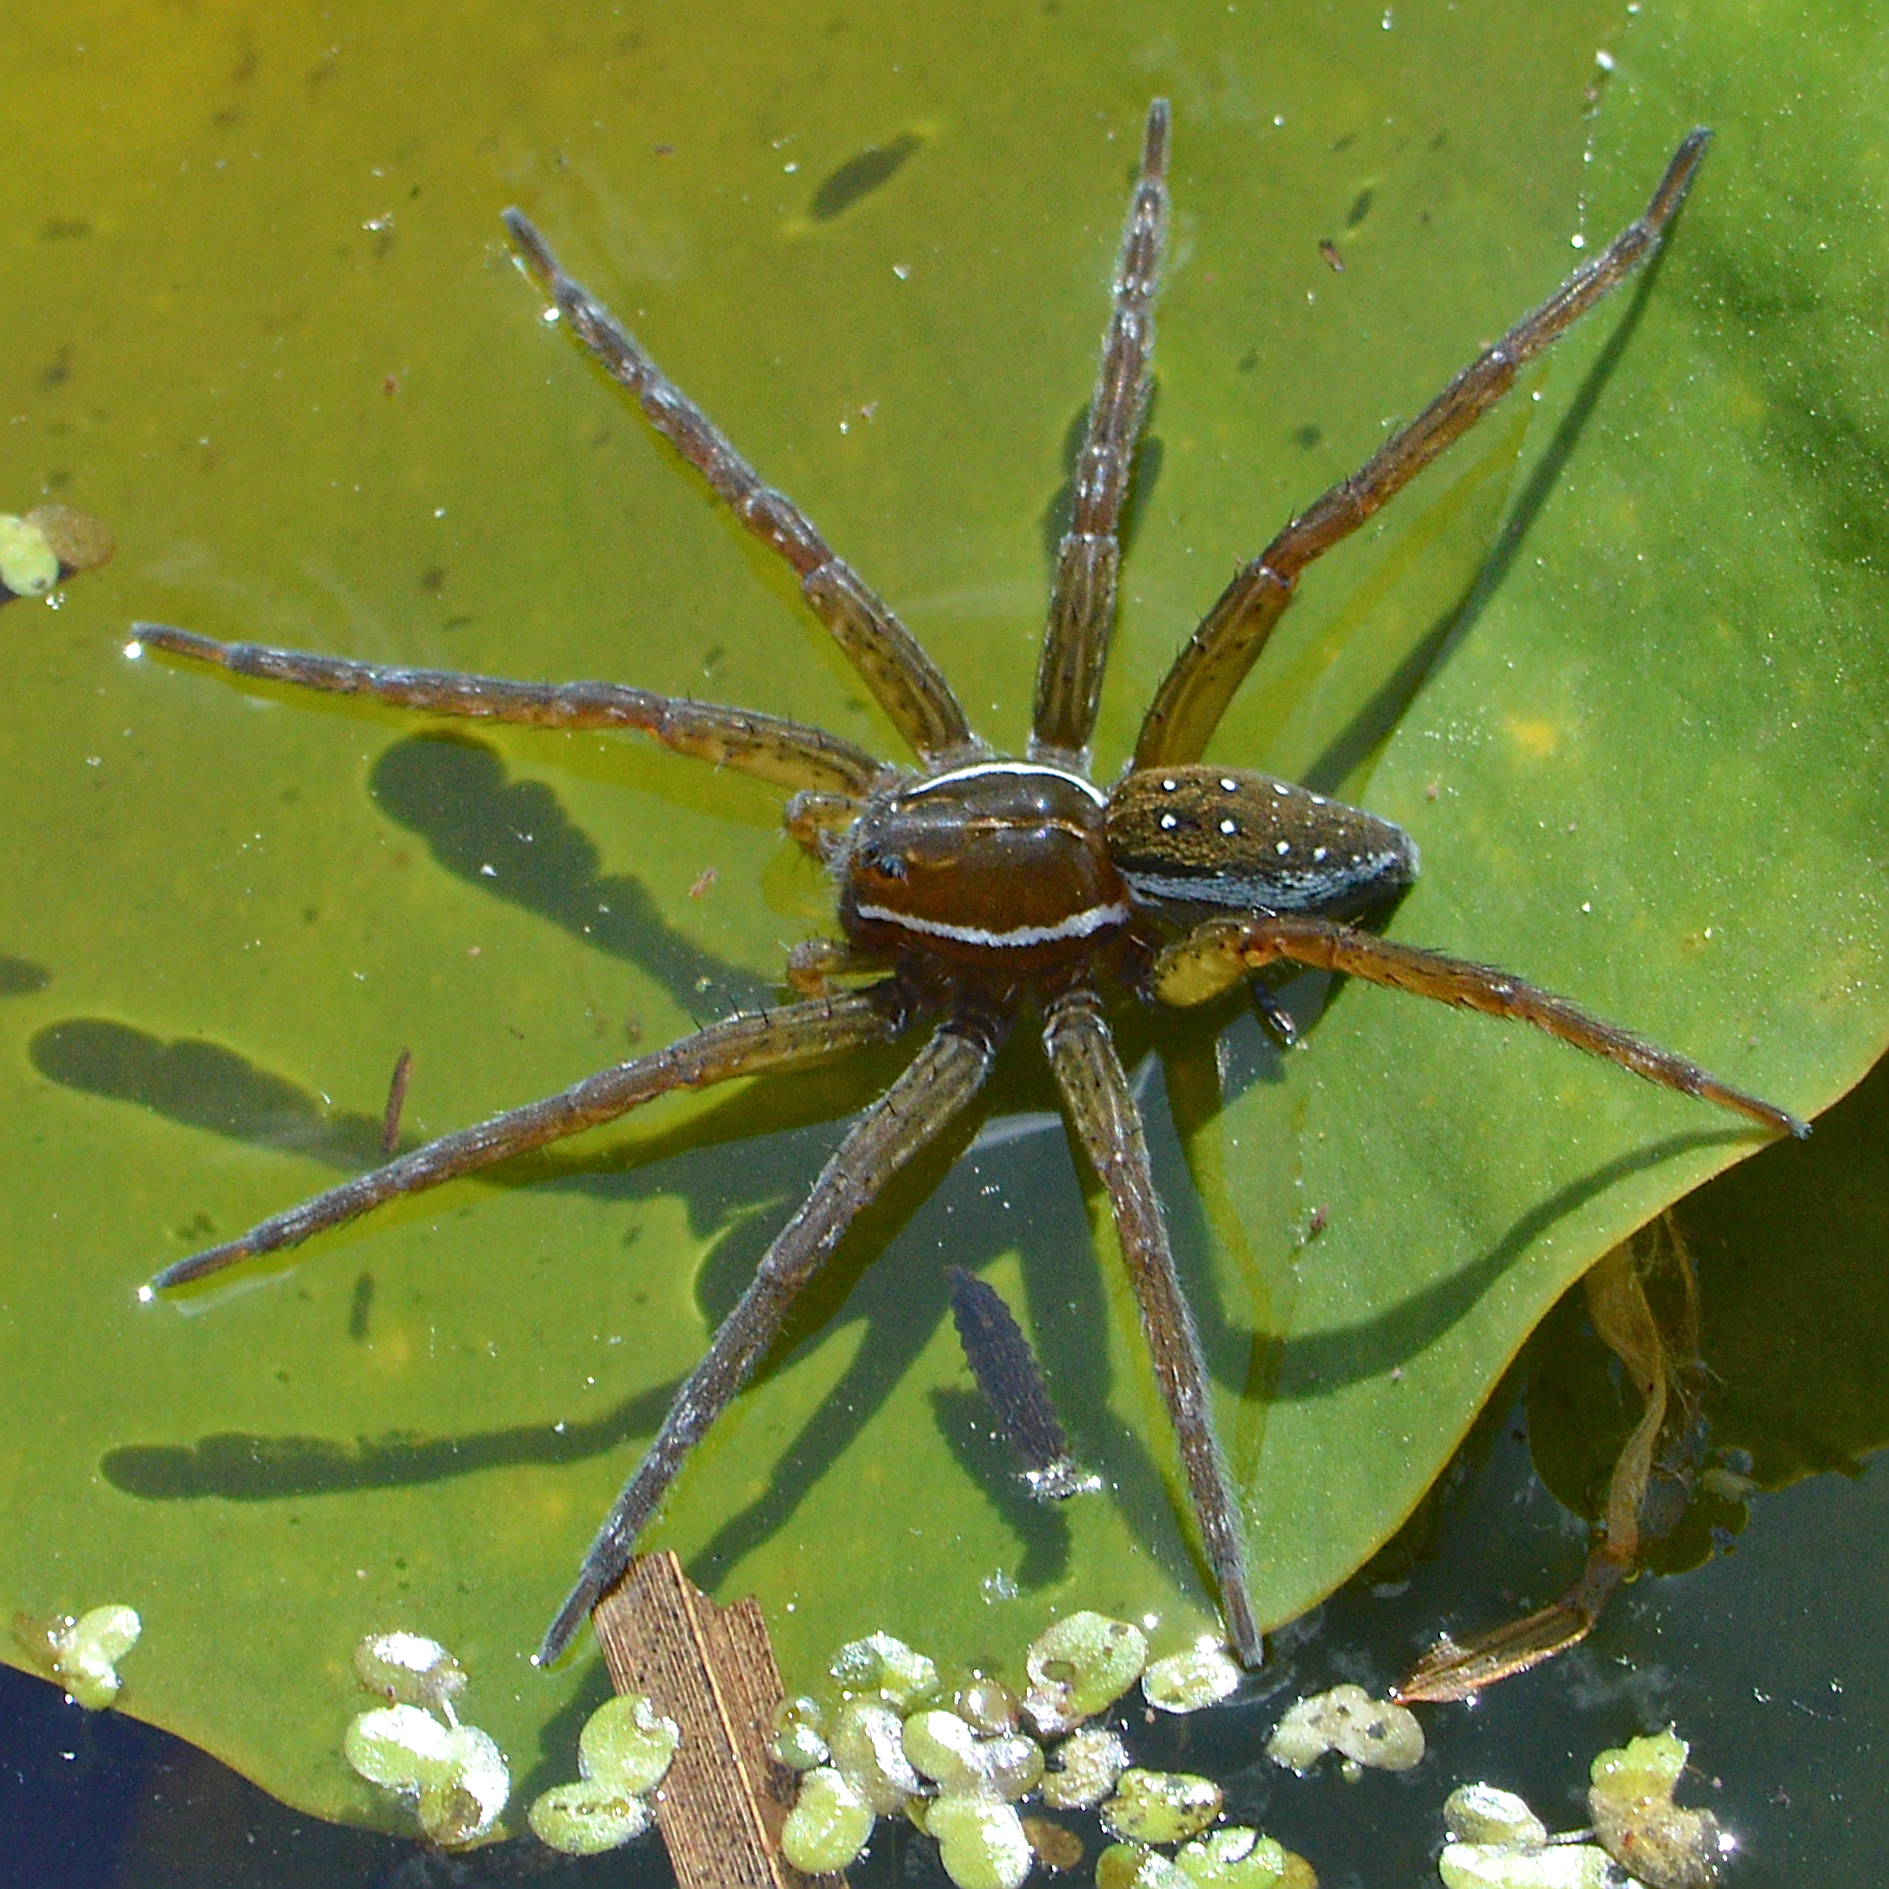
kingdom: Animalia
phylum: Arthropoda
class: Arachnida
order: Araneae
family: Pisauridae
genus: Dolomedes
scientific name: Dolomedes triton
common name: Six-spotted fishing spider
